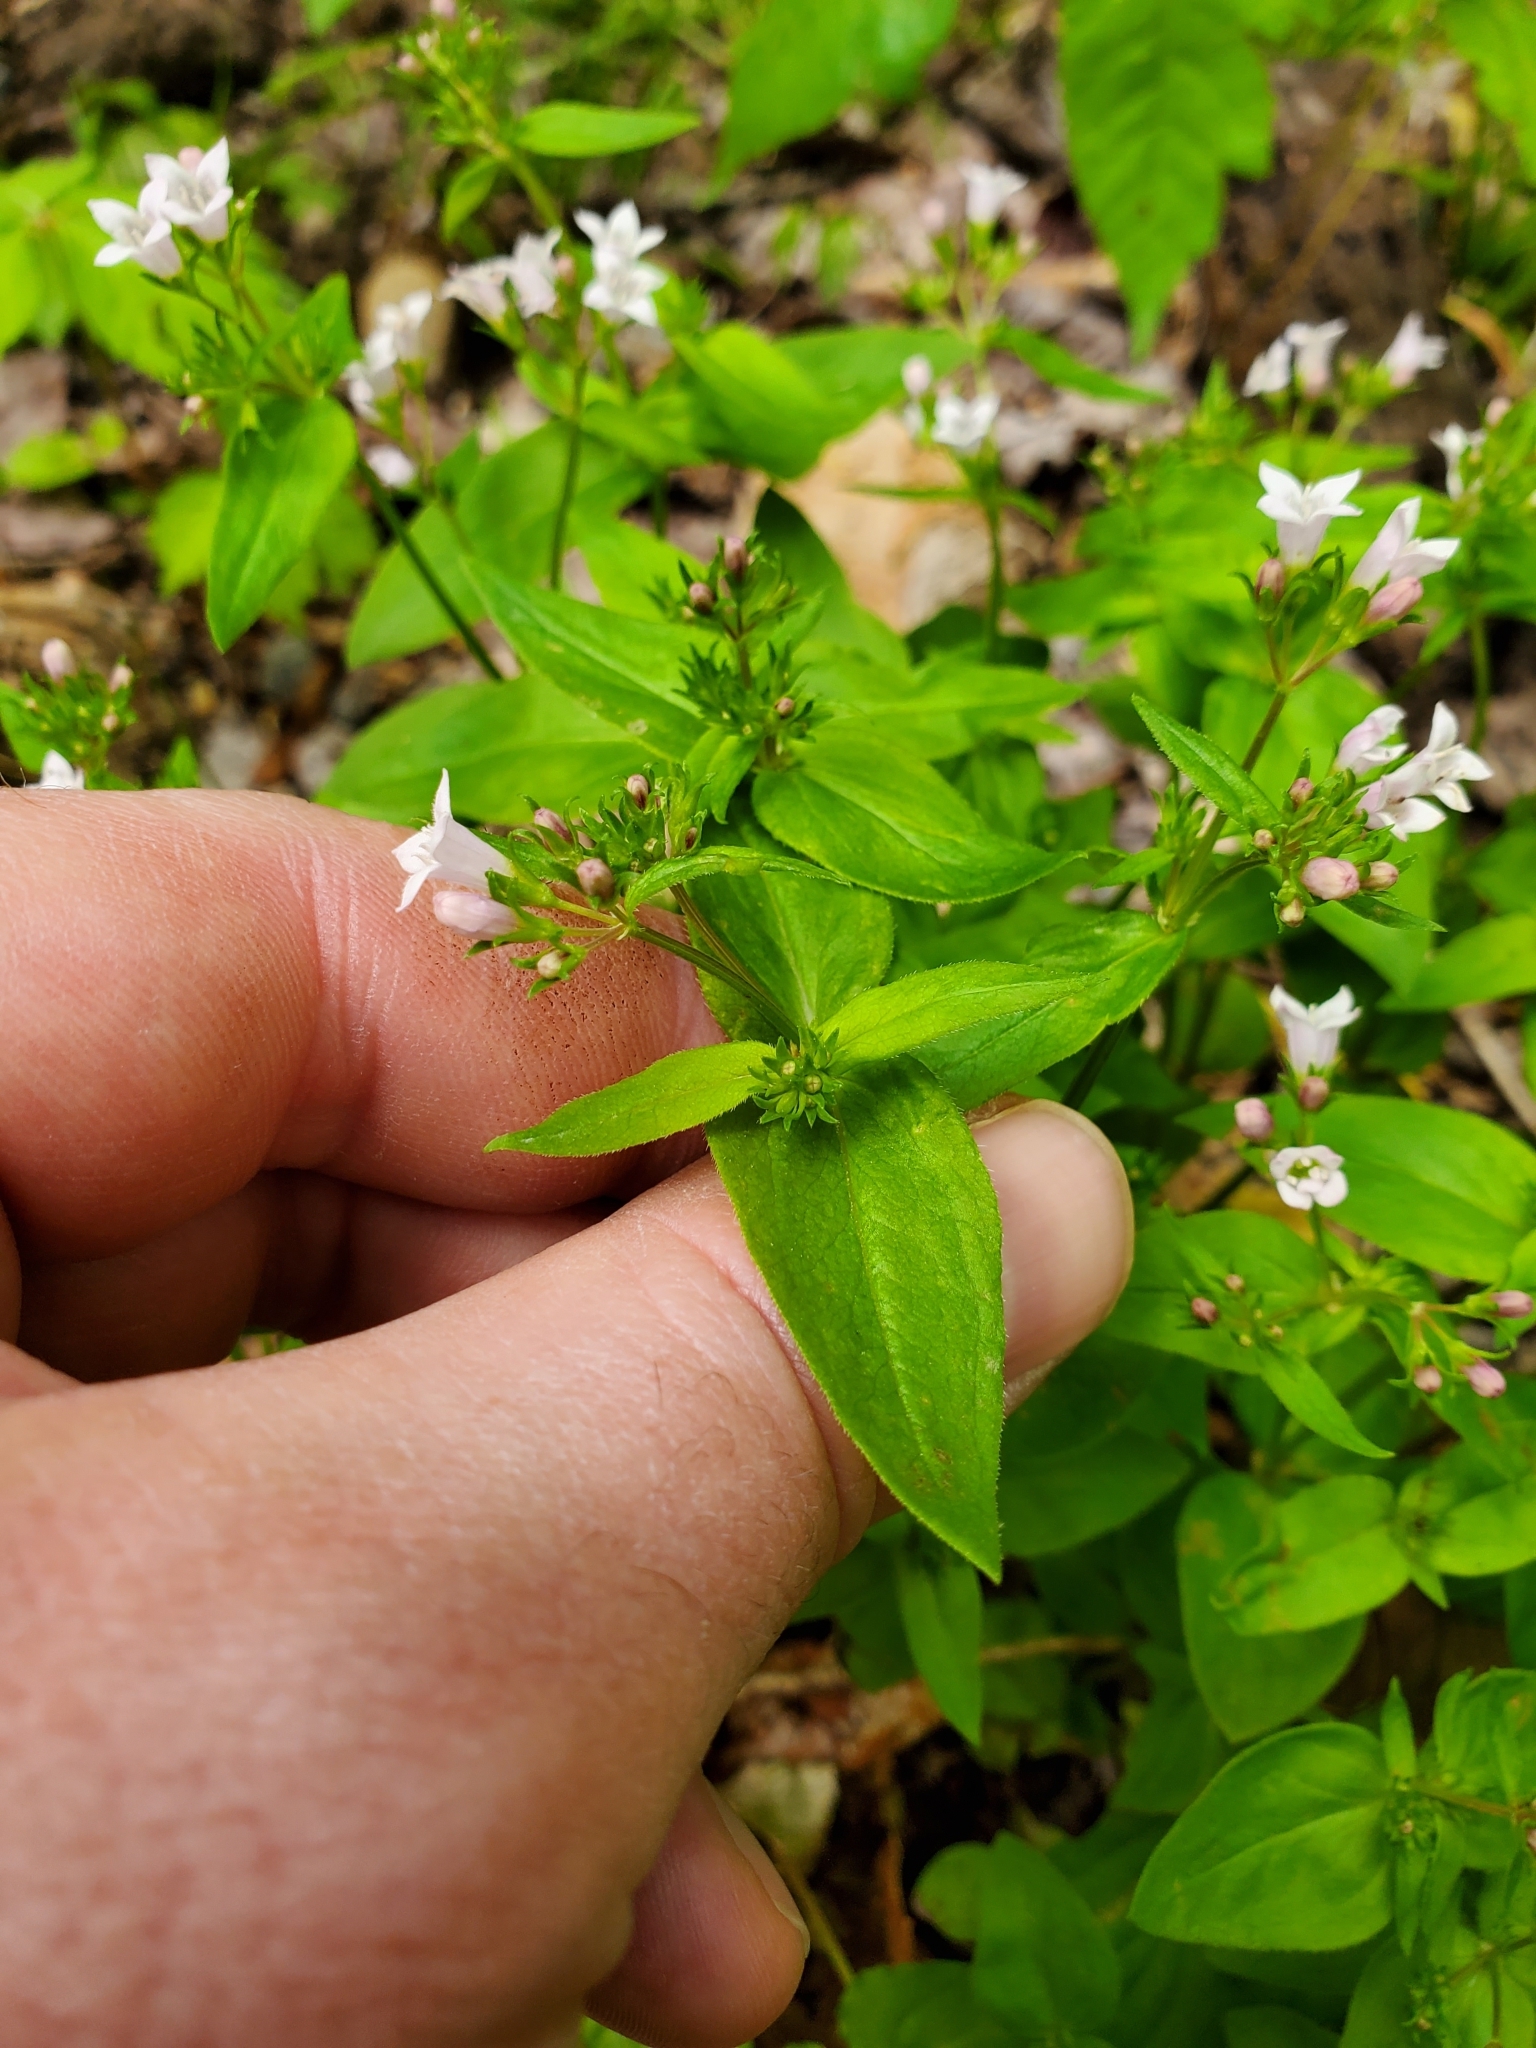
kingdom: Plantae
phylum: Tracheophyta
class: Magnoliopsida
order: Gentianales
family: Rubiaceae
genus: Houstonia
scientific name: Houstonia purpurea
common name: Summer bluet
